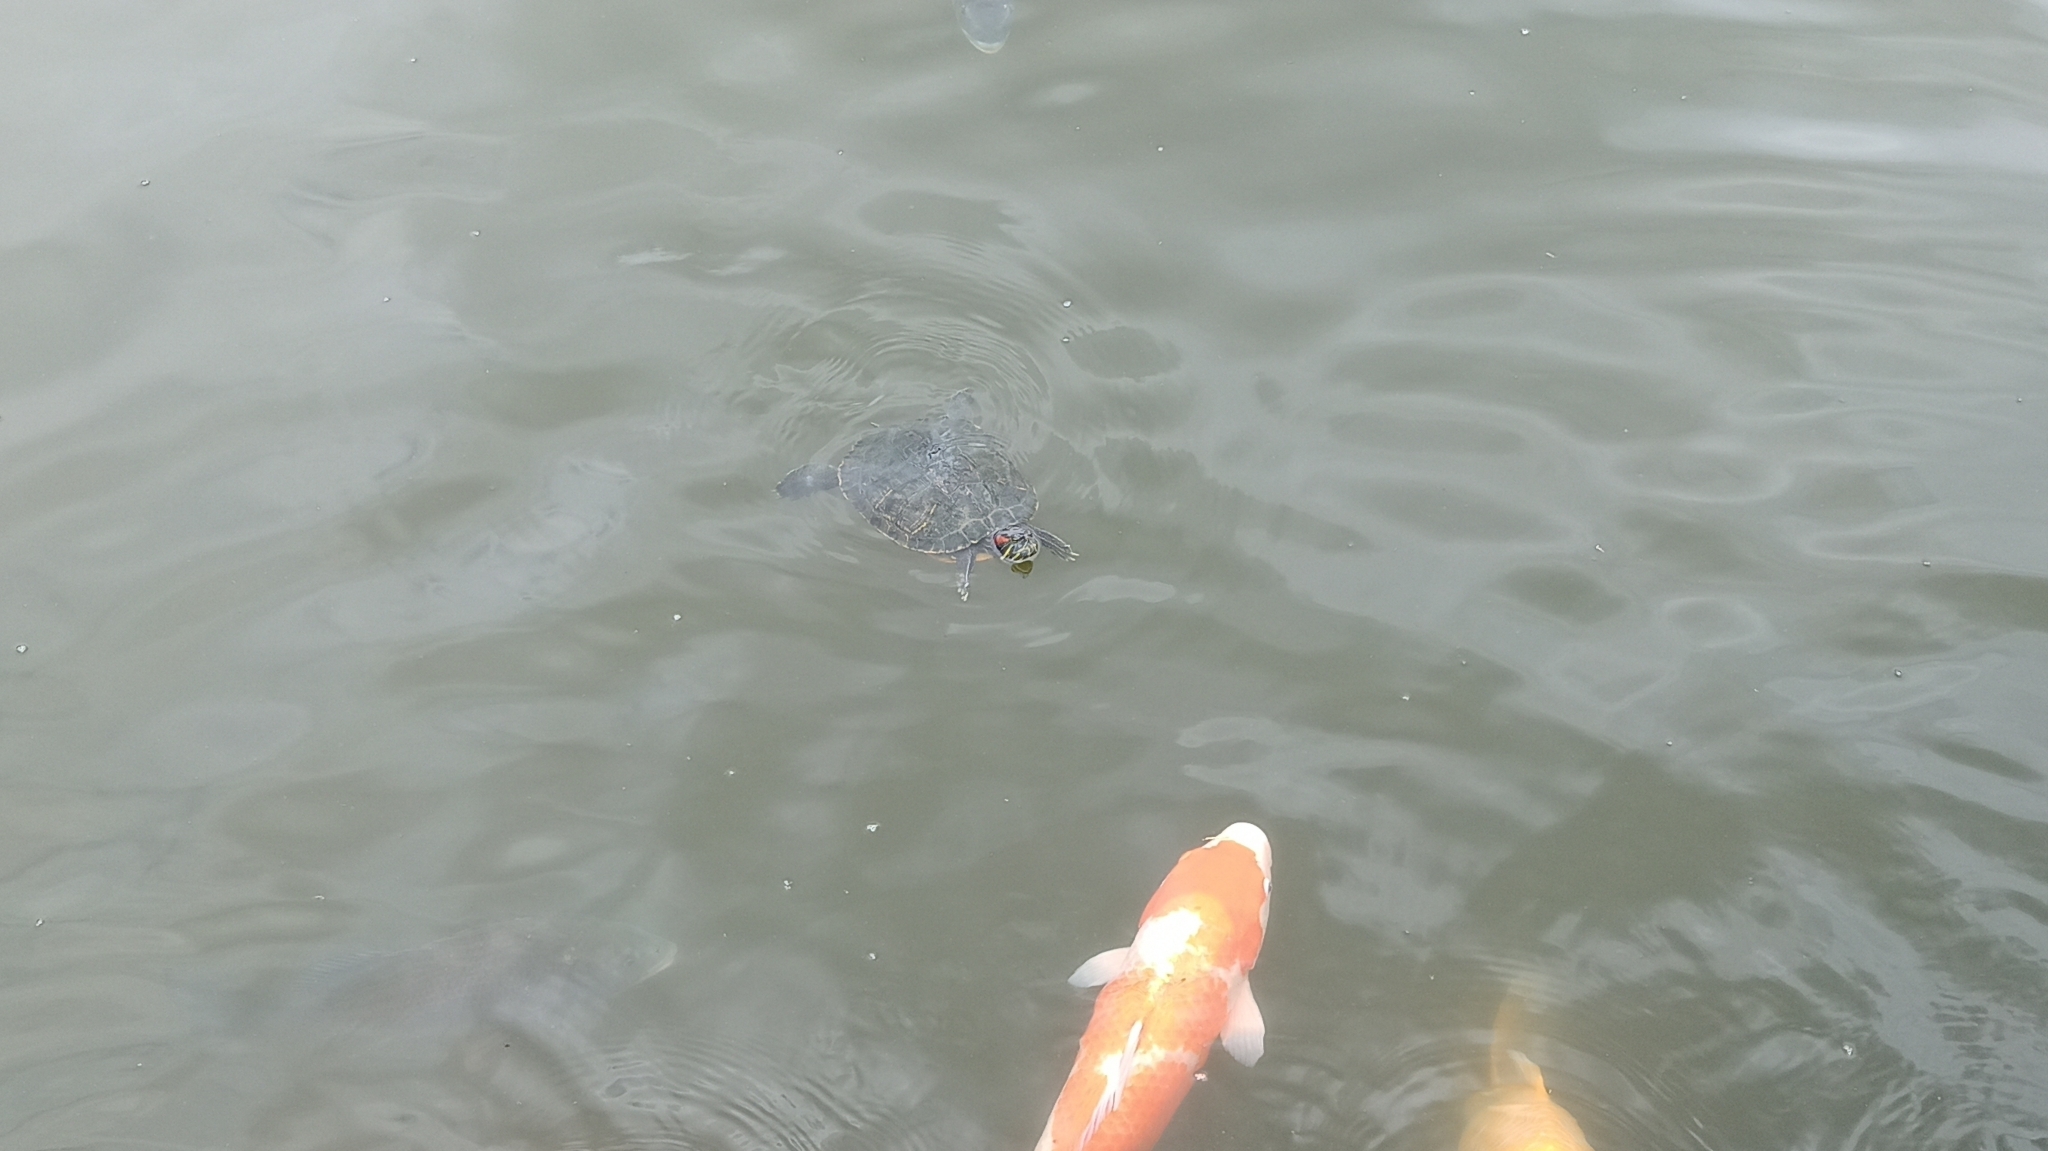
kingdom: Animalia
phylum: Chordata
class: Testudines
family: Emydidae
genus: Trachemys
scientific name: Trachemys scripta
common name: Slider
